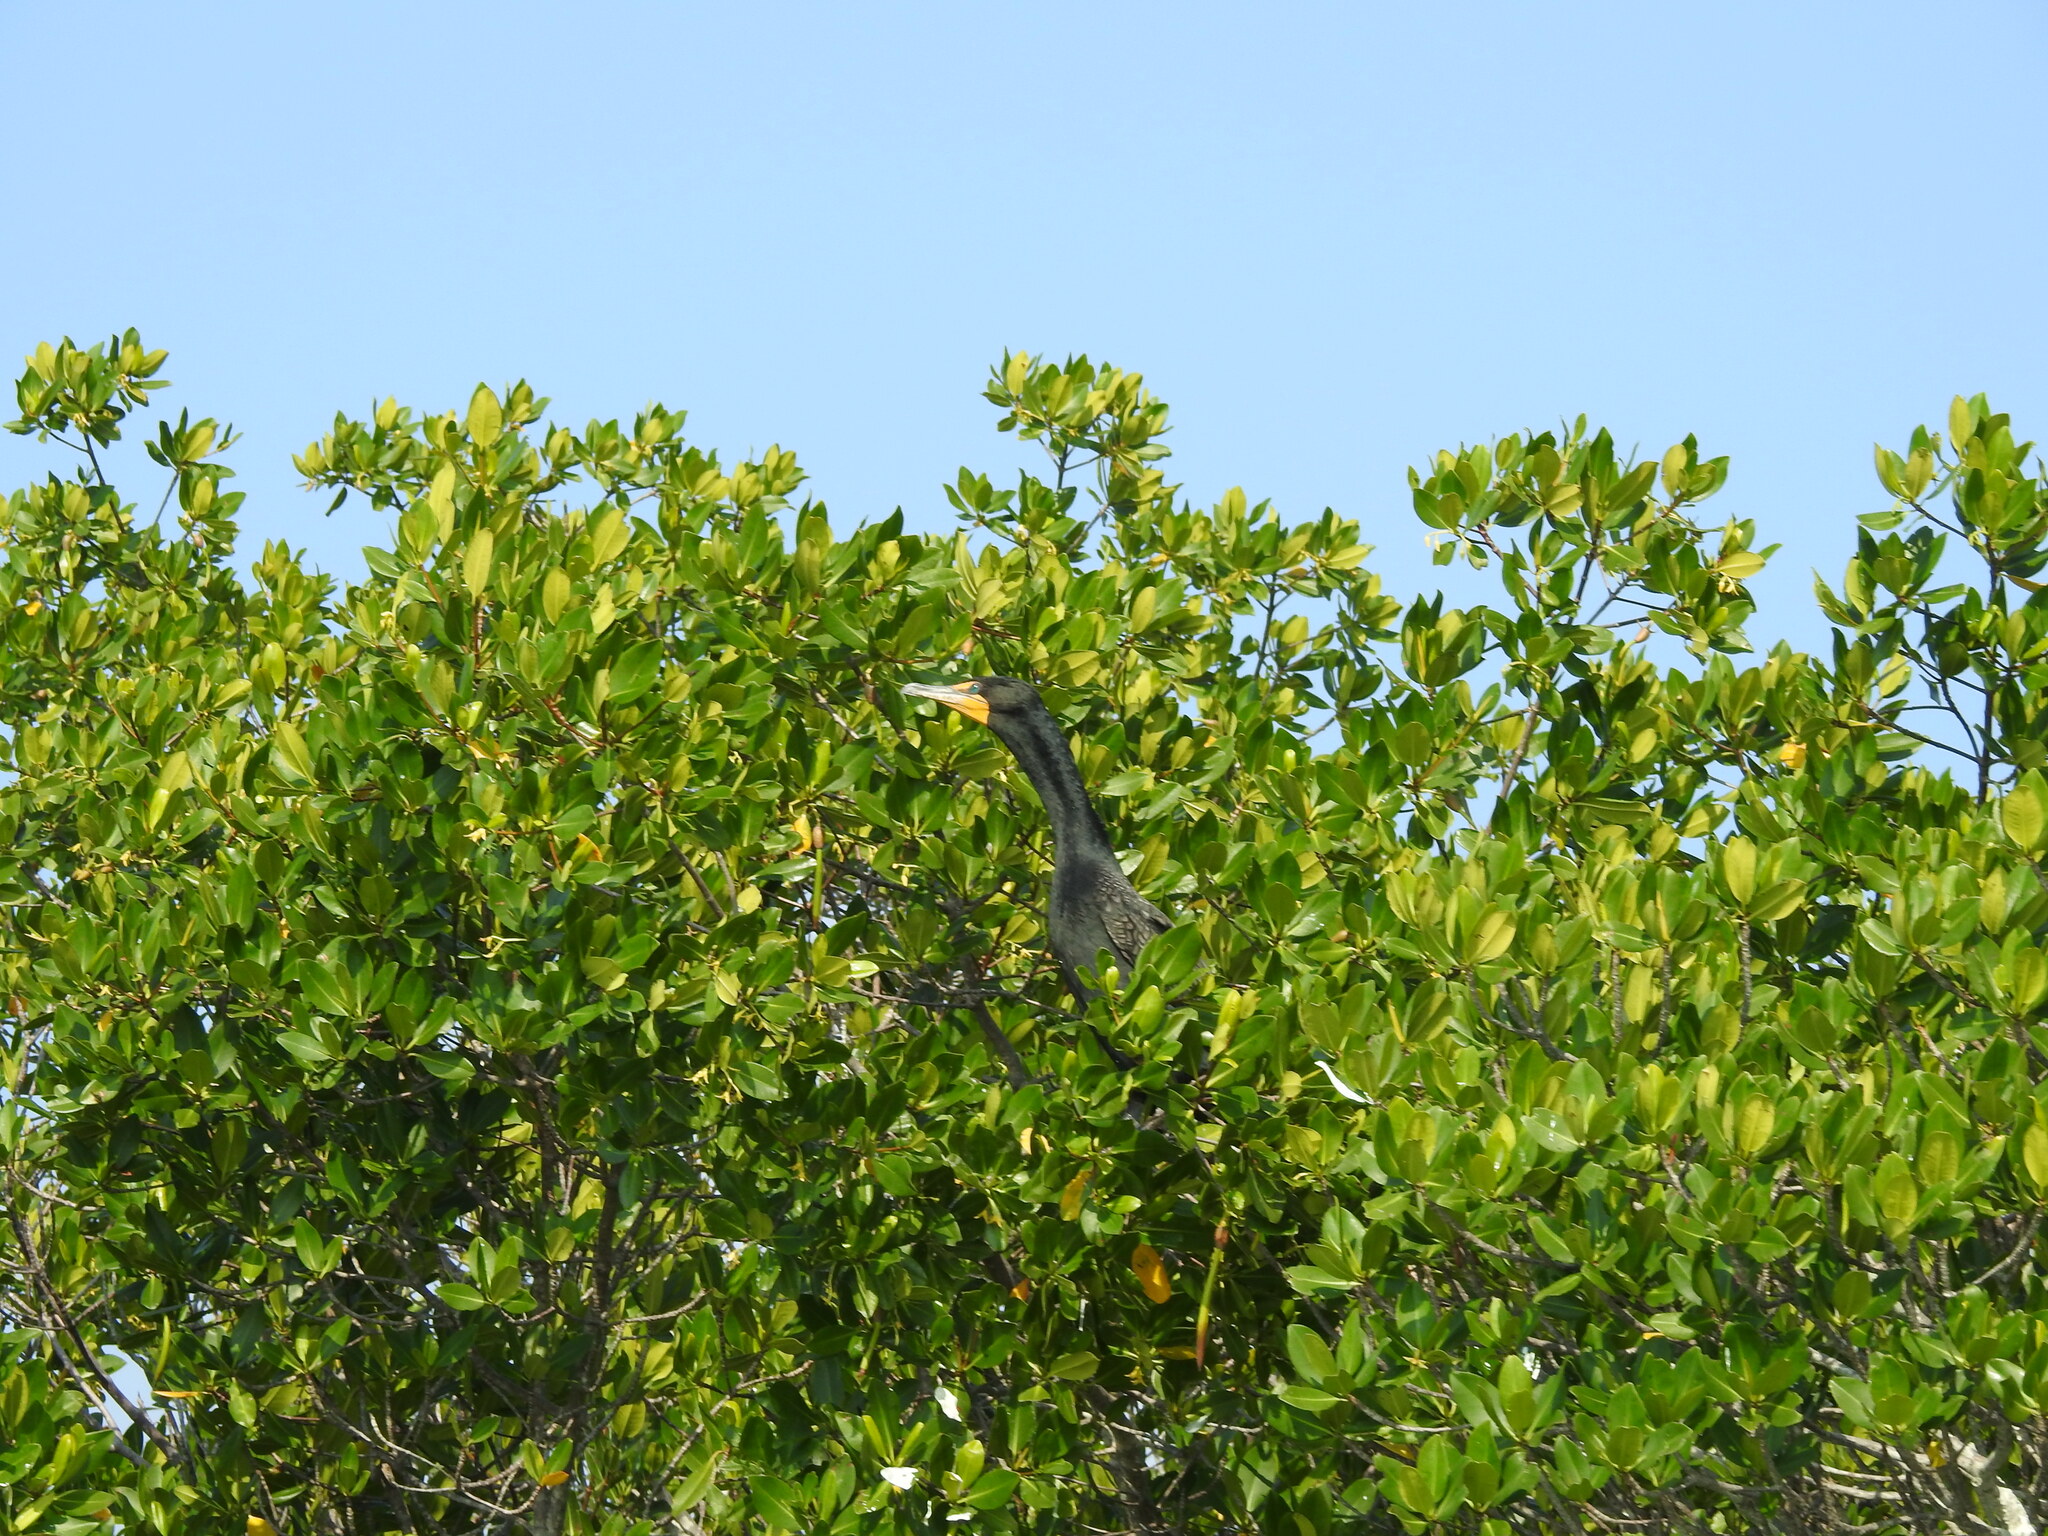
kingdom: Animalia
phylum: Chordata
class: Aves
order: Suliformes
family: Phalacrocoracidae
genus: Phalacrocorax
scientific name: Phalacrocorax auritus
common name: Double-crested cormorant
